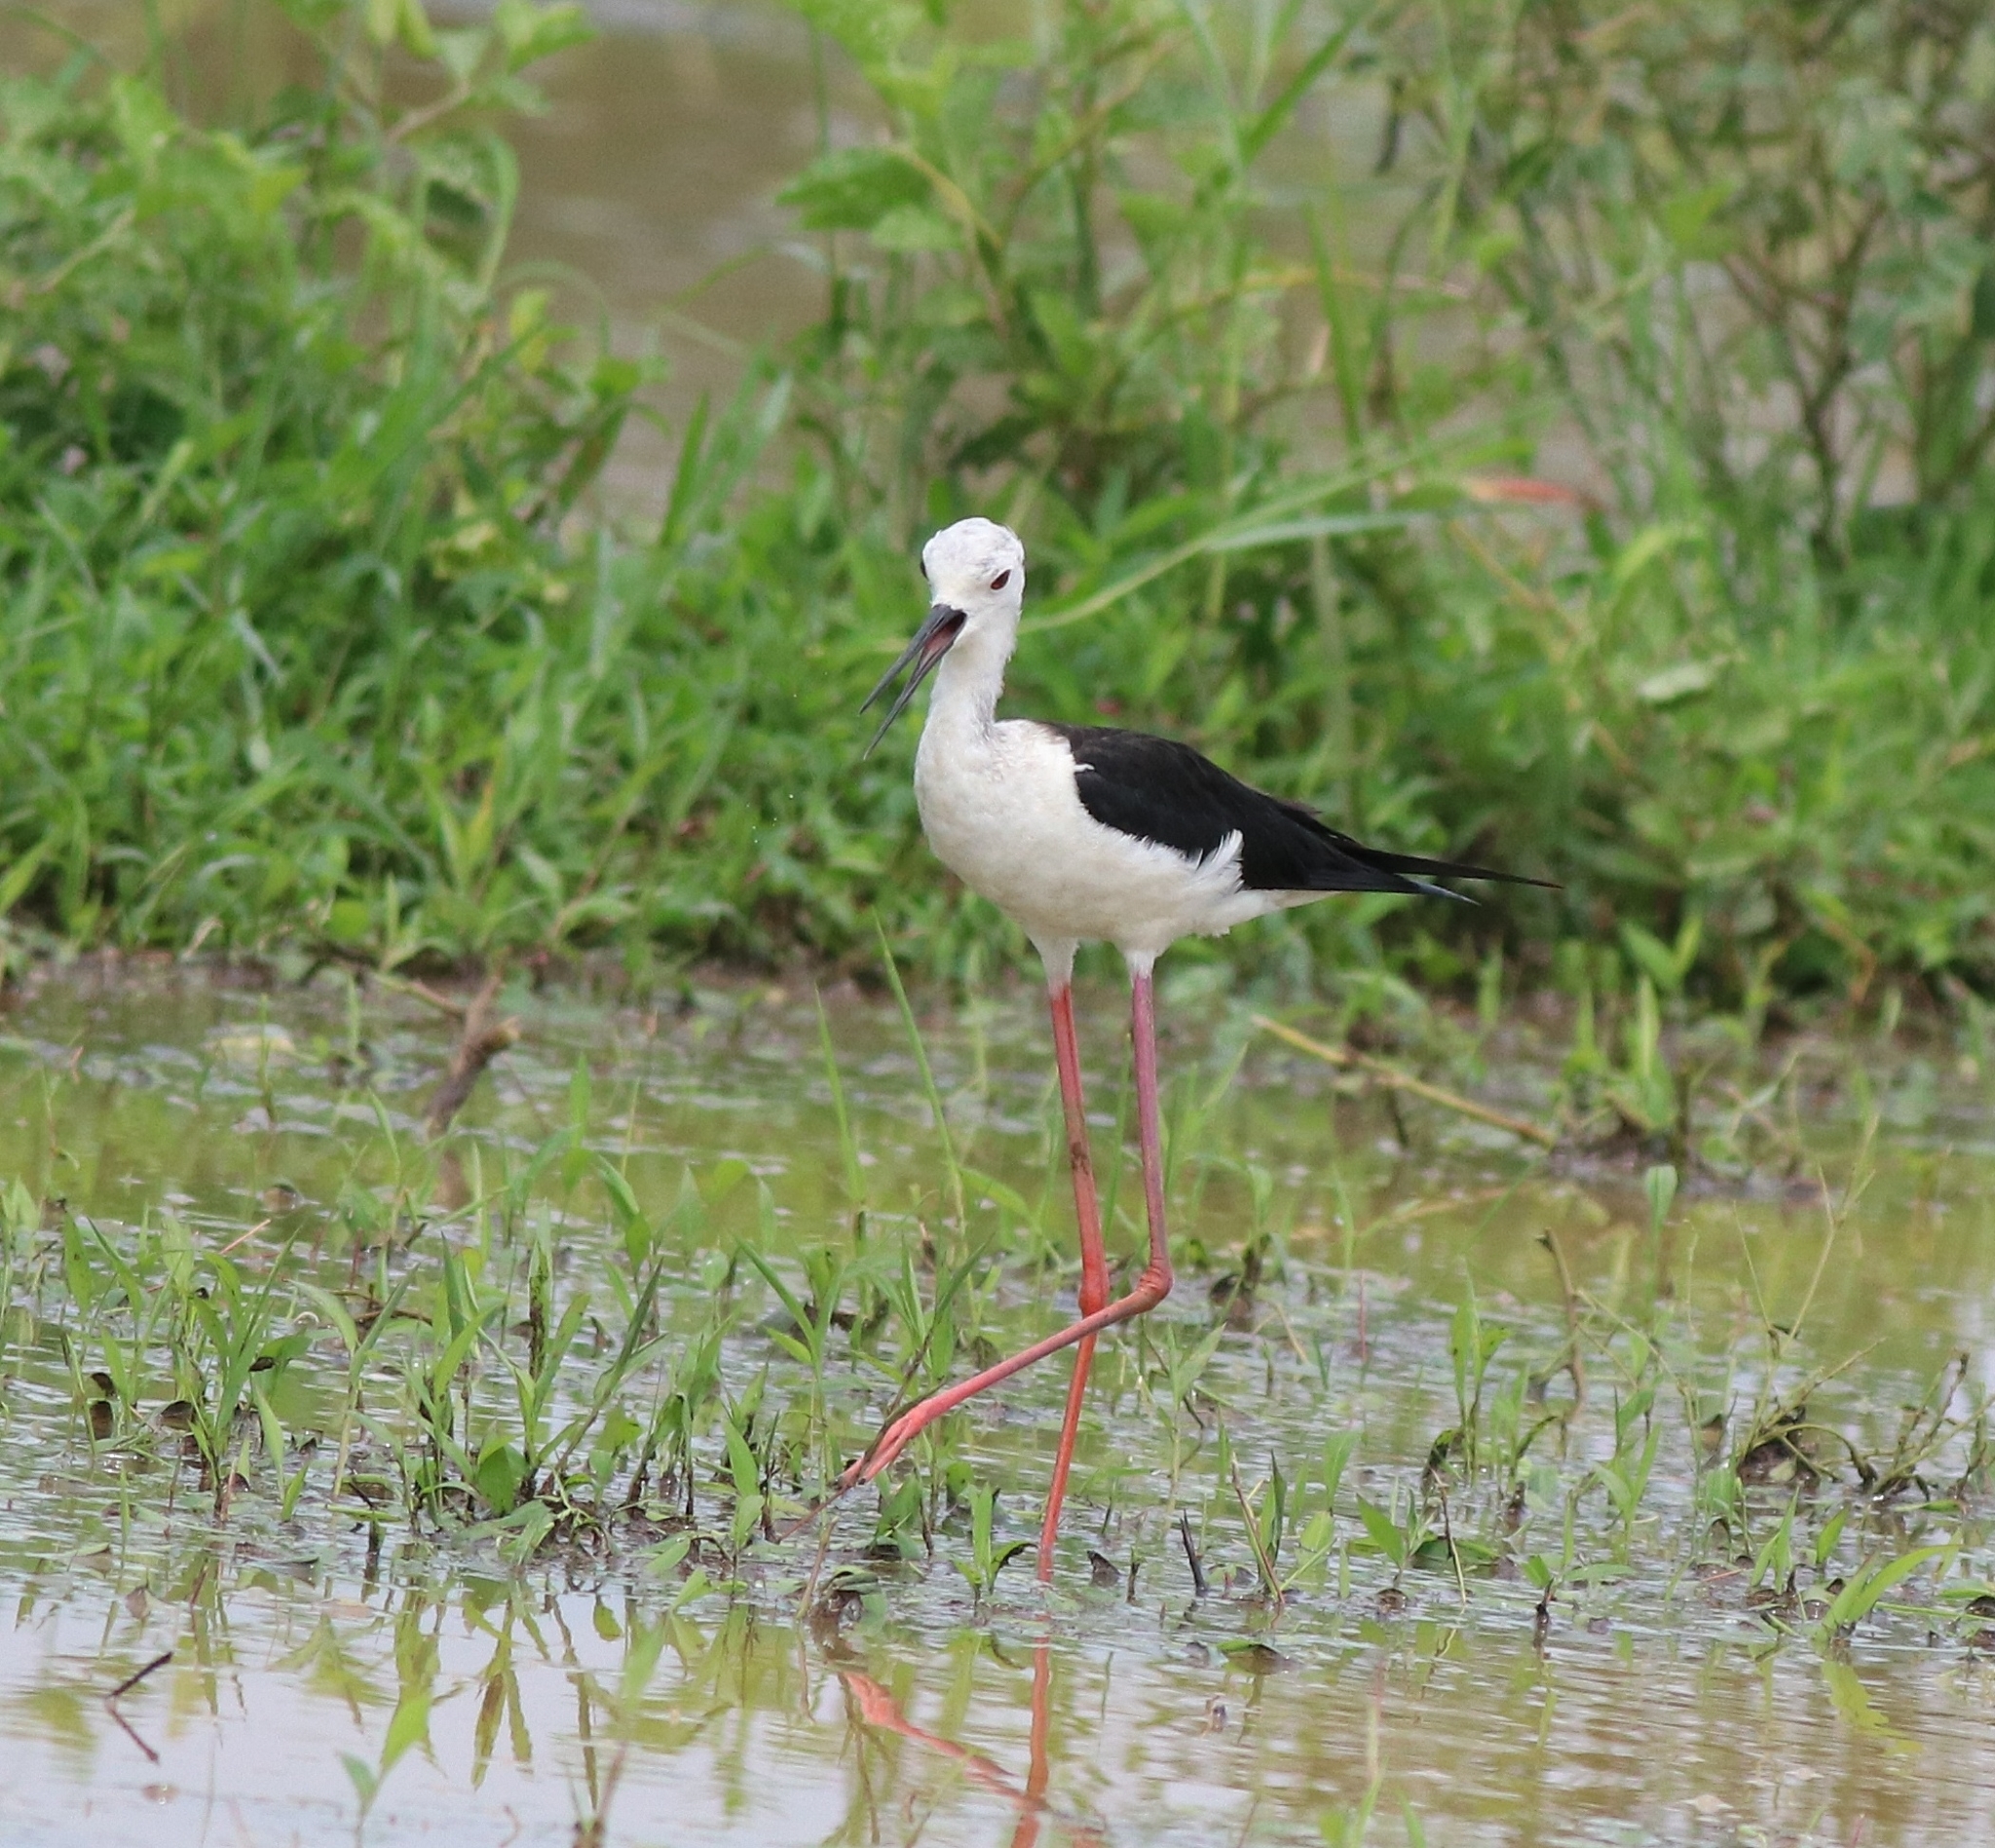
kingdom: Animalia
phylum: Chordata
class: Aves
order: Charadriiformes
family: Recurvirostridae
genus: Himantopus
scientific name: Himantopus himantopus
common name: Black-winged stilt
